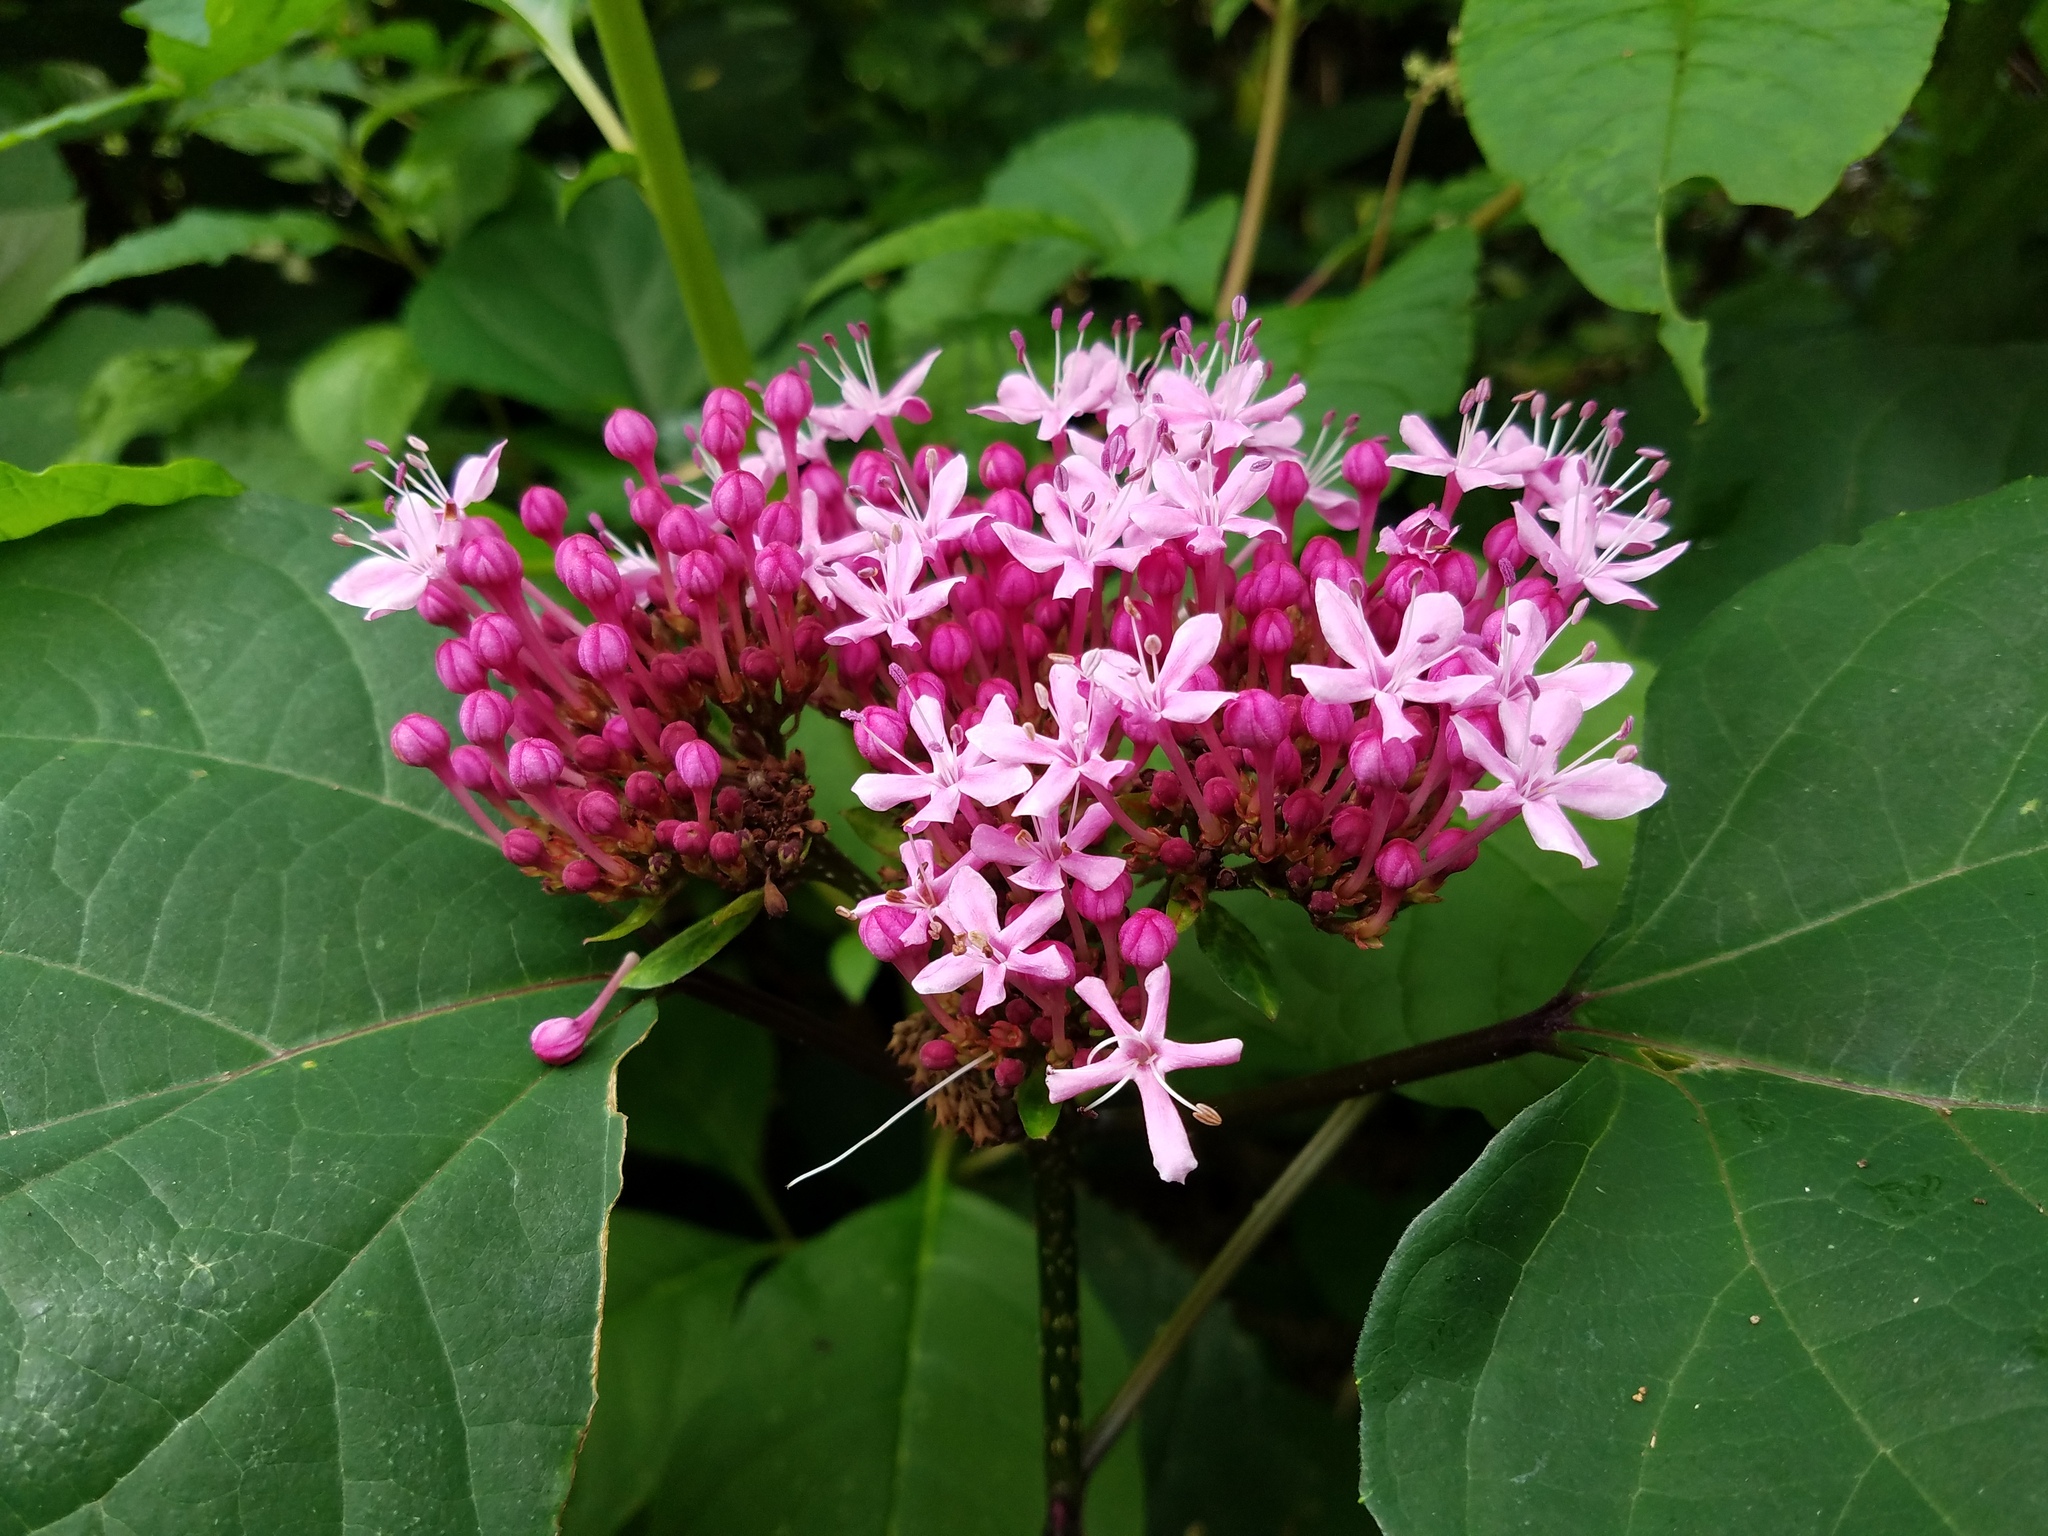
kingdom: Plantae
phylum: Tracheophyta
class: Magnoliopsida
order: Lamiales
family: Lamiaceae
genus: Clerodendrum
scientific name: Clerodendrum bungei
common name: Rose glorybower
